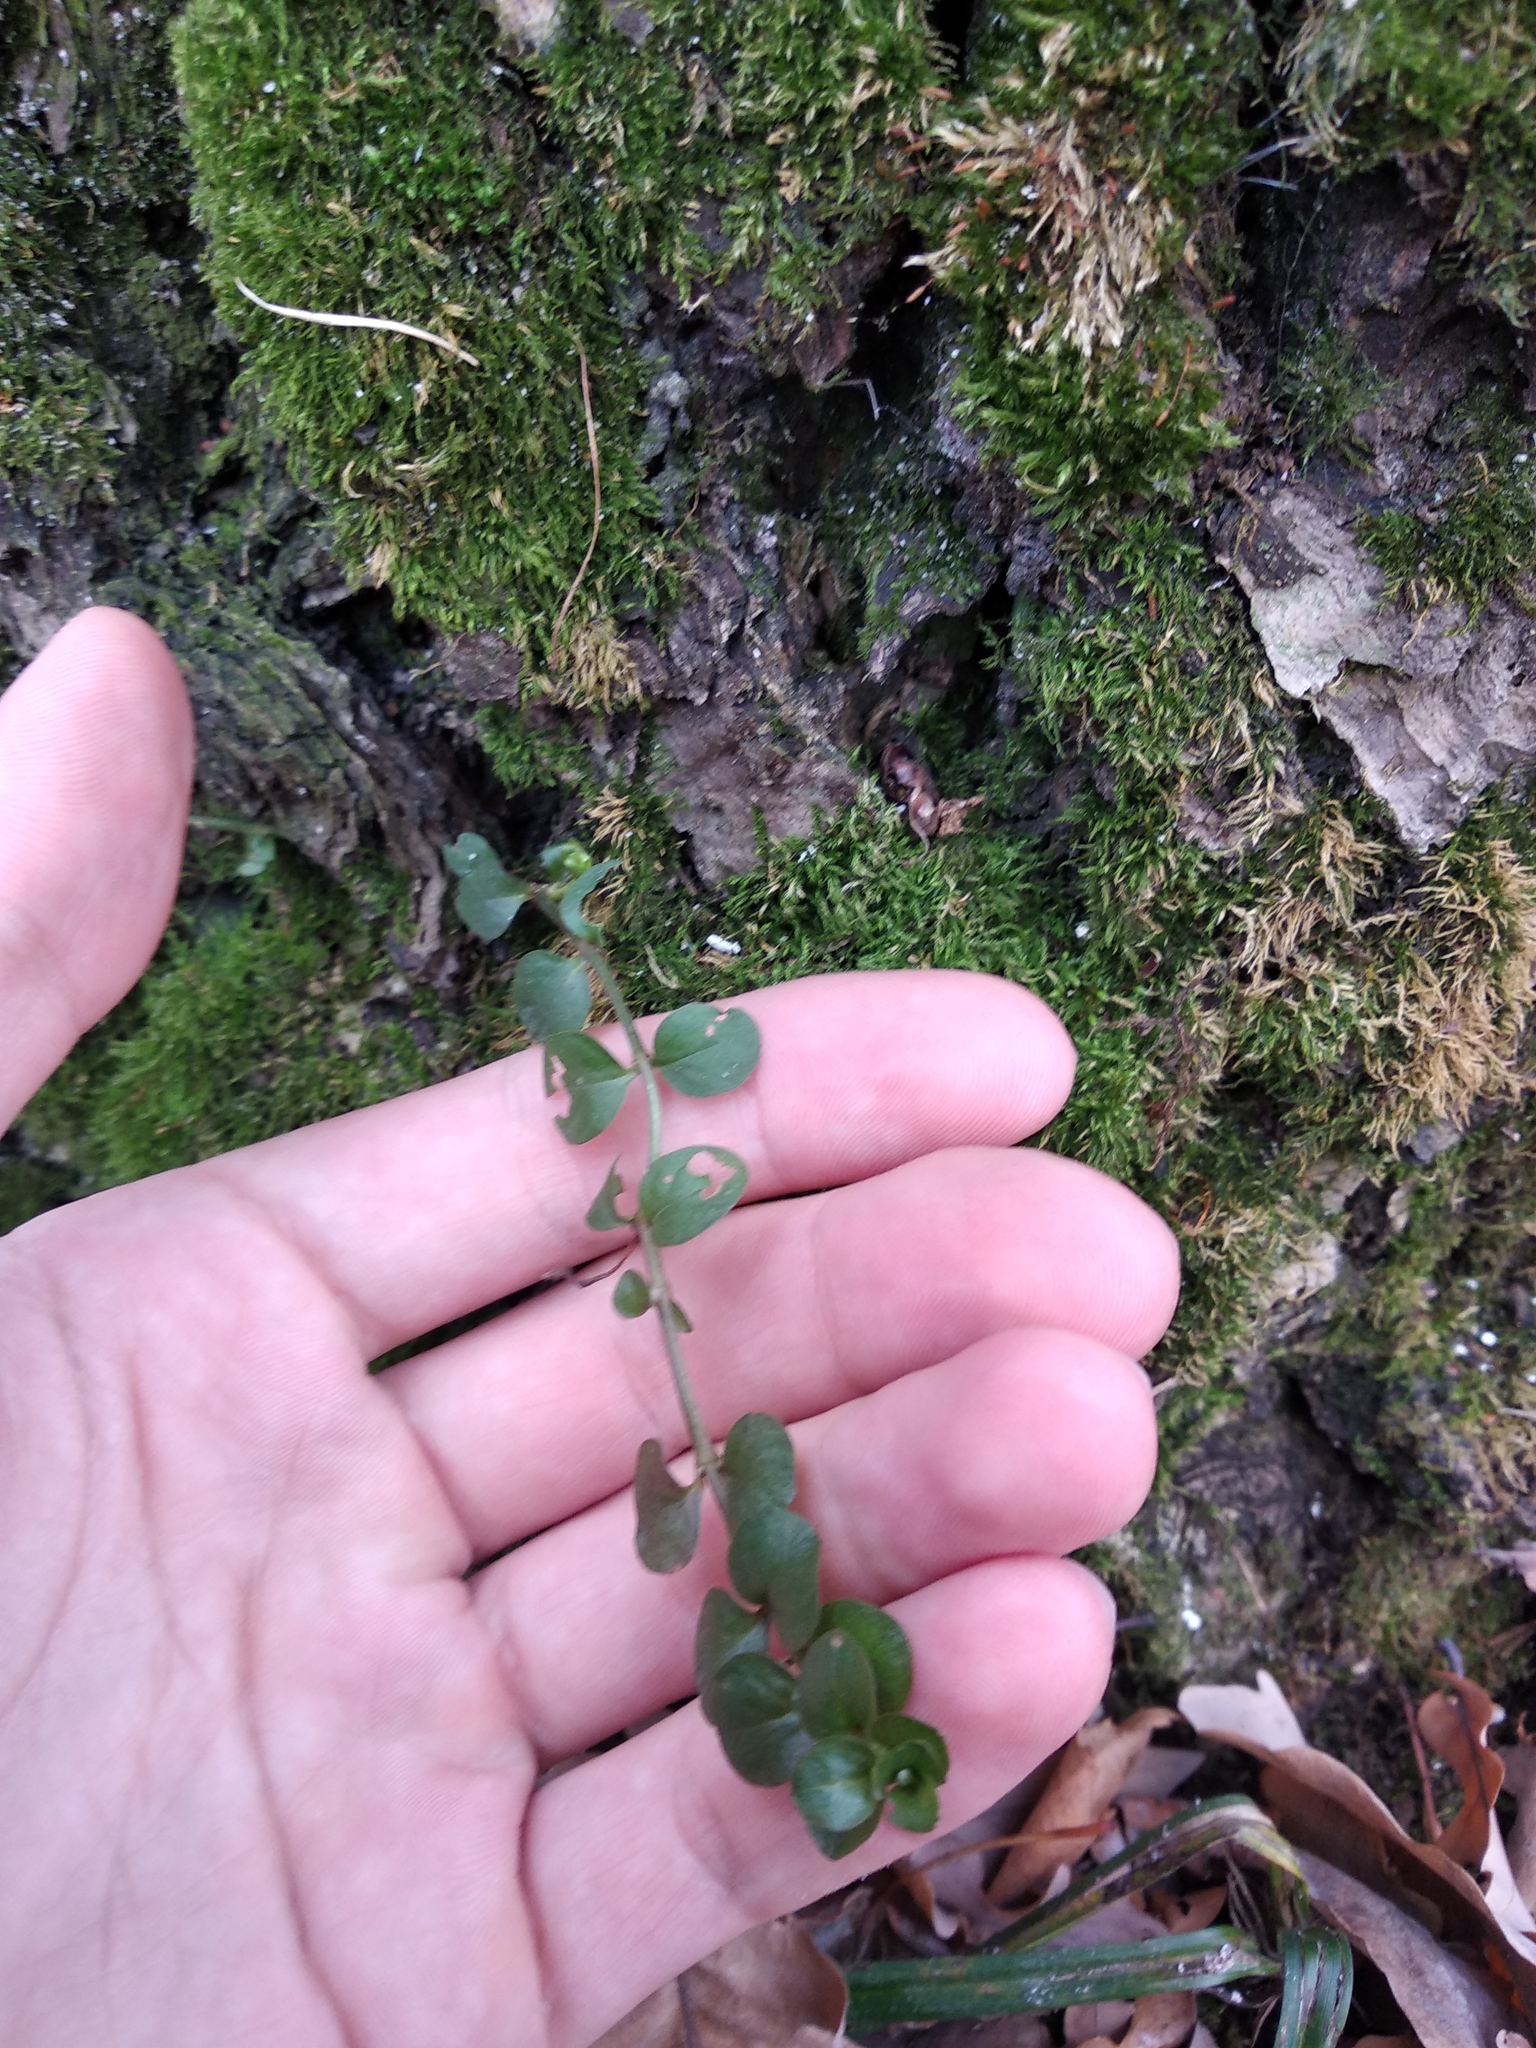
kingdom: Plantae
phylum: Tracheophyta
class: Magnoliopsida
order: Ericales
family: Primulaceae
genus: Lysimachia
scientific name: Lysimachia nummularia
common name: Moneywort
